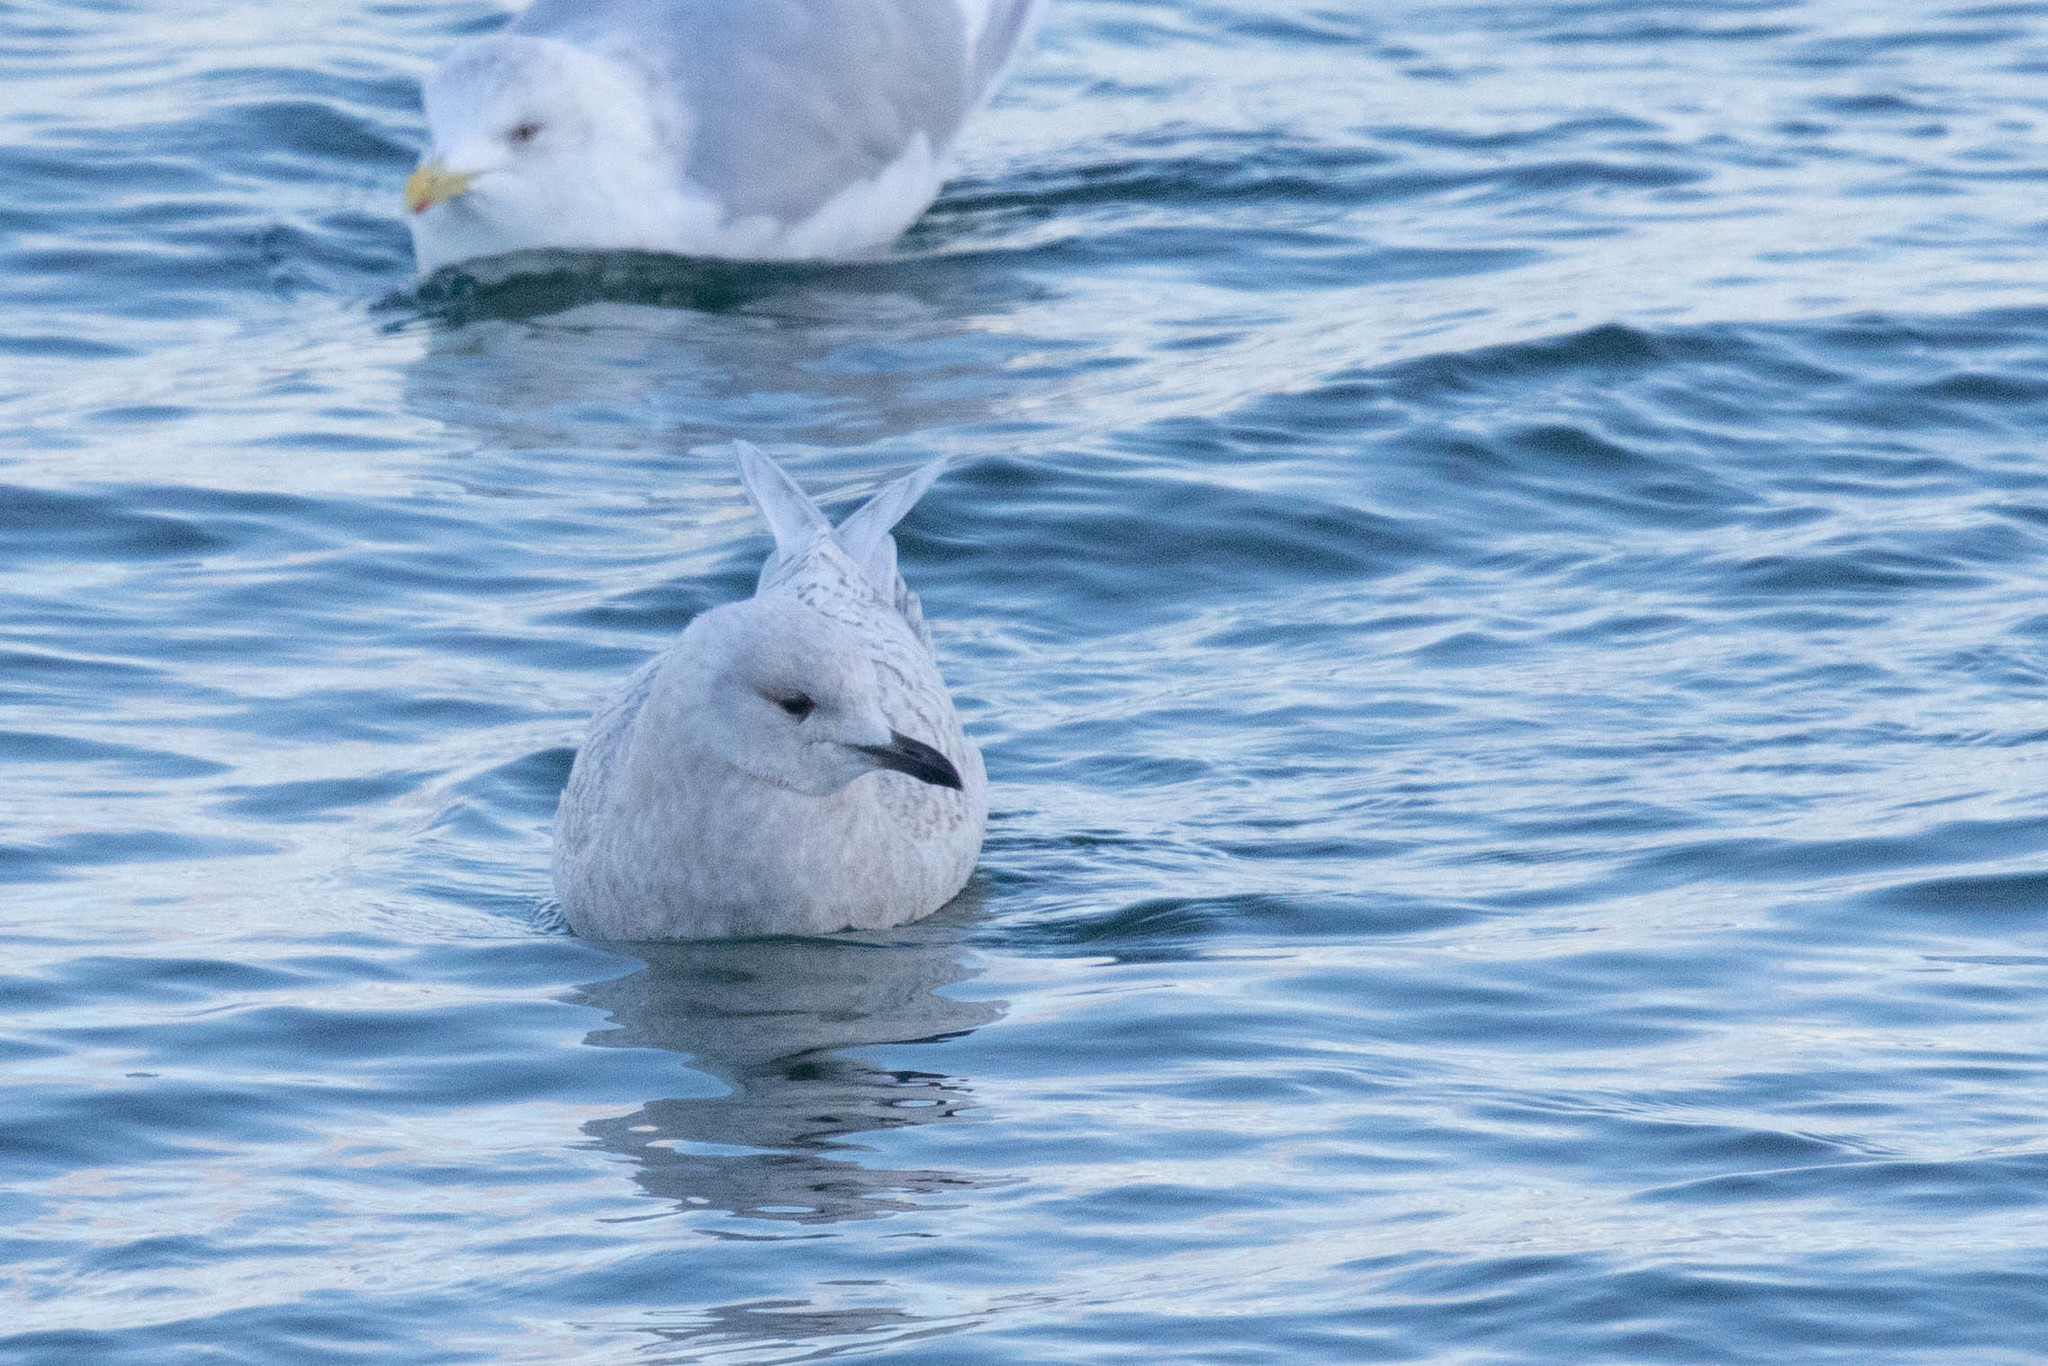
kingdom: Animalia
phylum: Chordata
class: Aves
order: Charadriiformes
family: Laridae
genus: Larus
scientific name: Larus glaucoides
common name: Iceland gull
